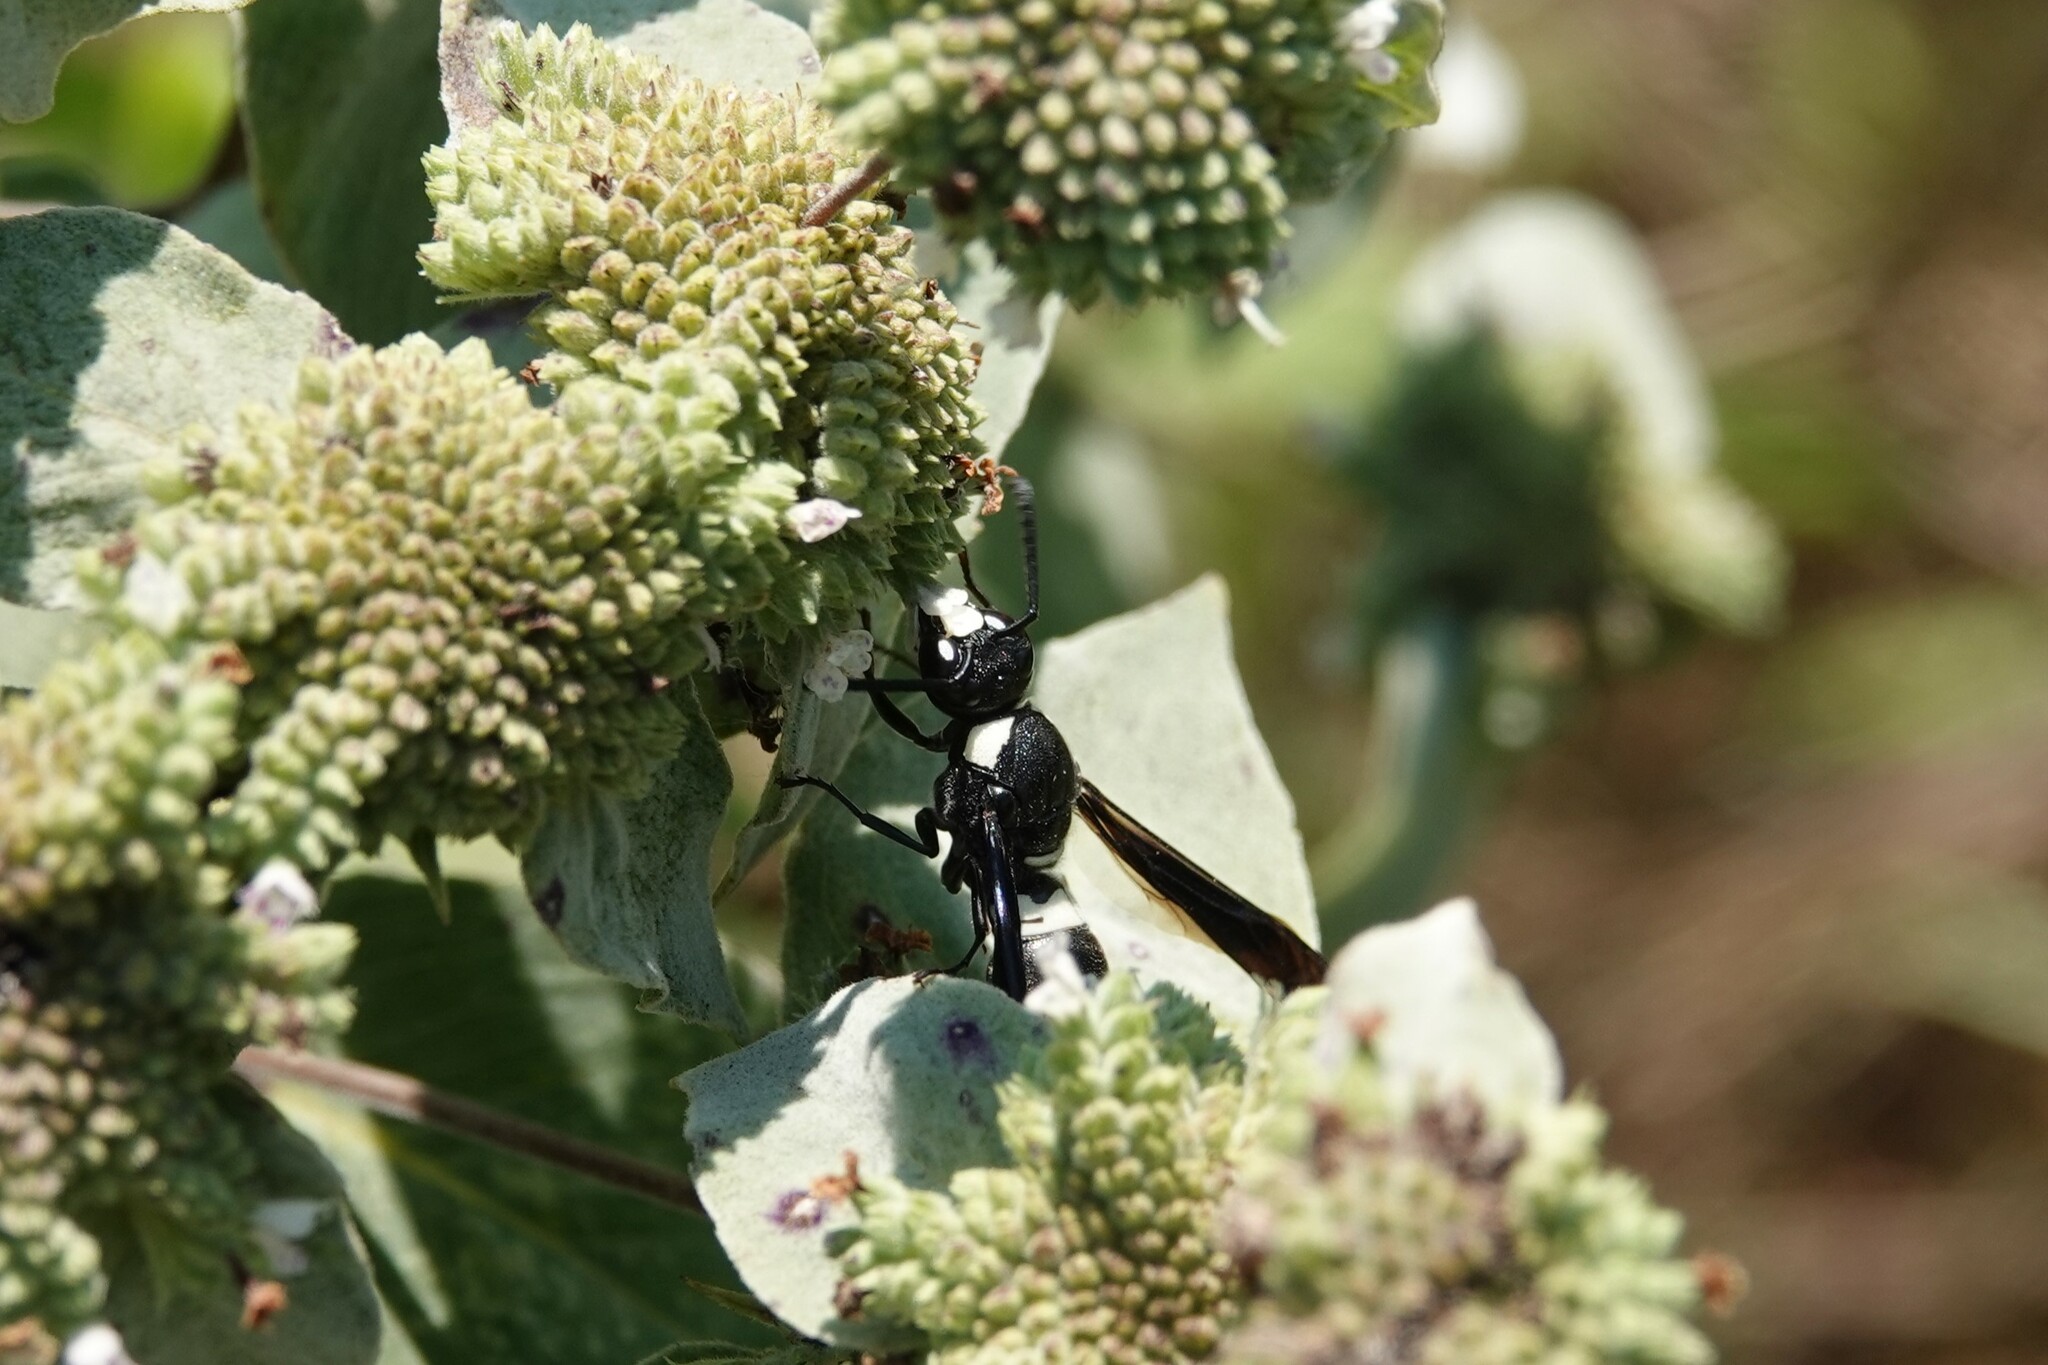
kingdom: Animalia
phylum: Arthropoda
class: Insecta
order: Hymenoptera
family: Eumenidae
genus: Monobia
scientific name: Monobia quadridens
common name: Four-toothed mason wasp
